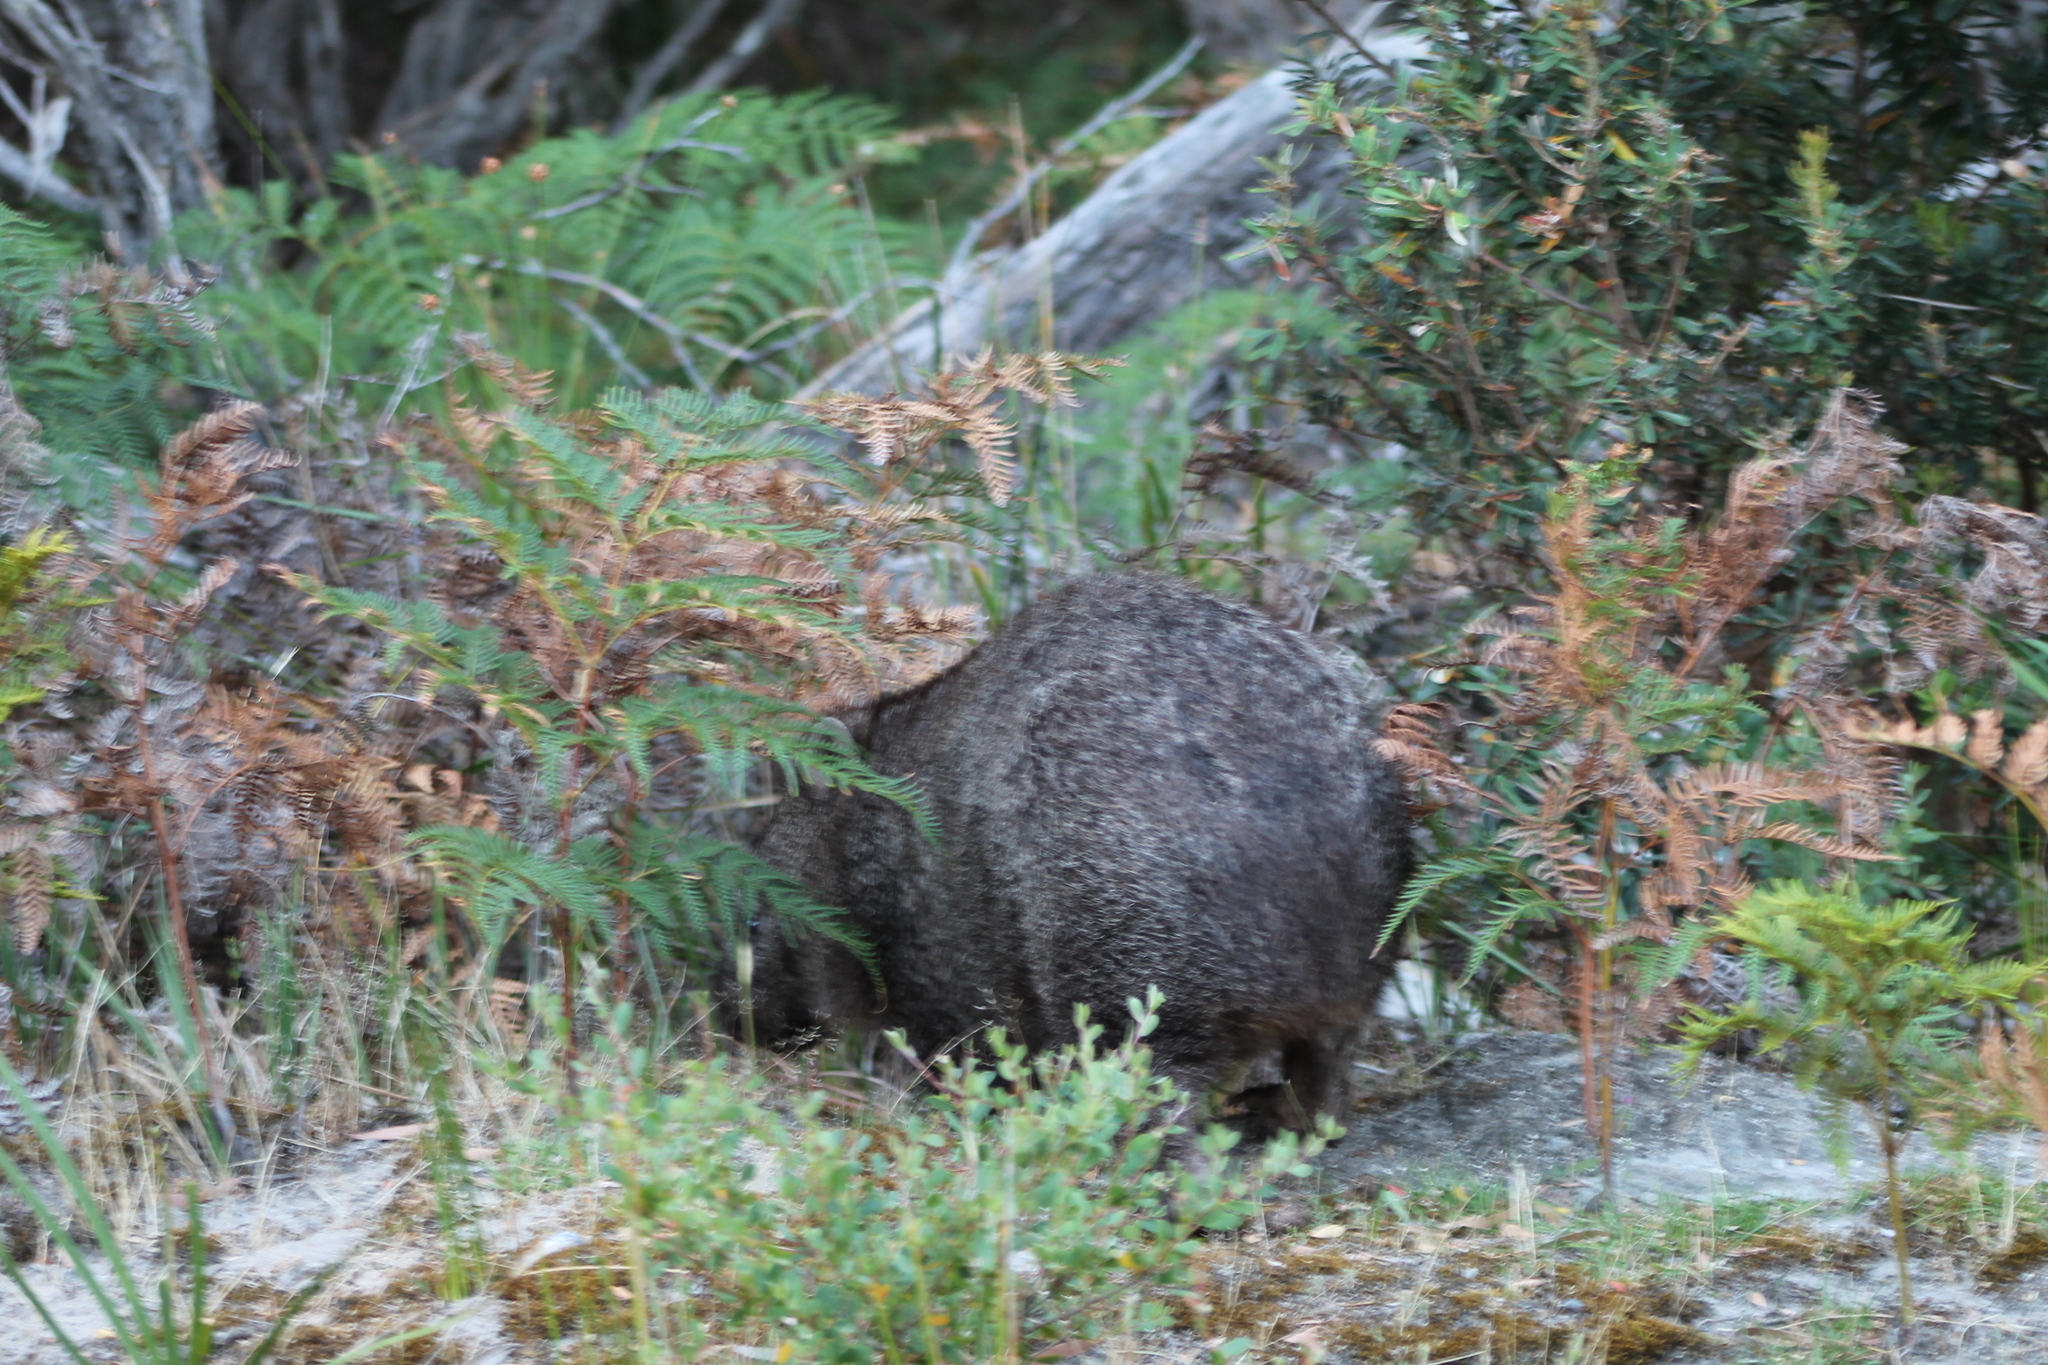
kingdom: Animalia
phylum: Chordata
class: Mammalia
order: Diprotodontia
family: Vombatidae
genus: Vombatus
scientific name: Vombatus ursinus
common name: Common wombat
